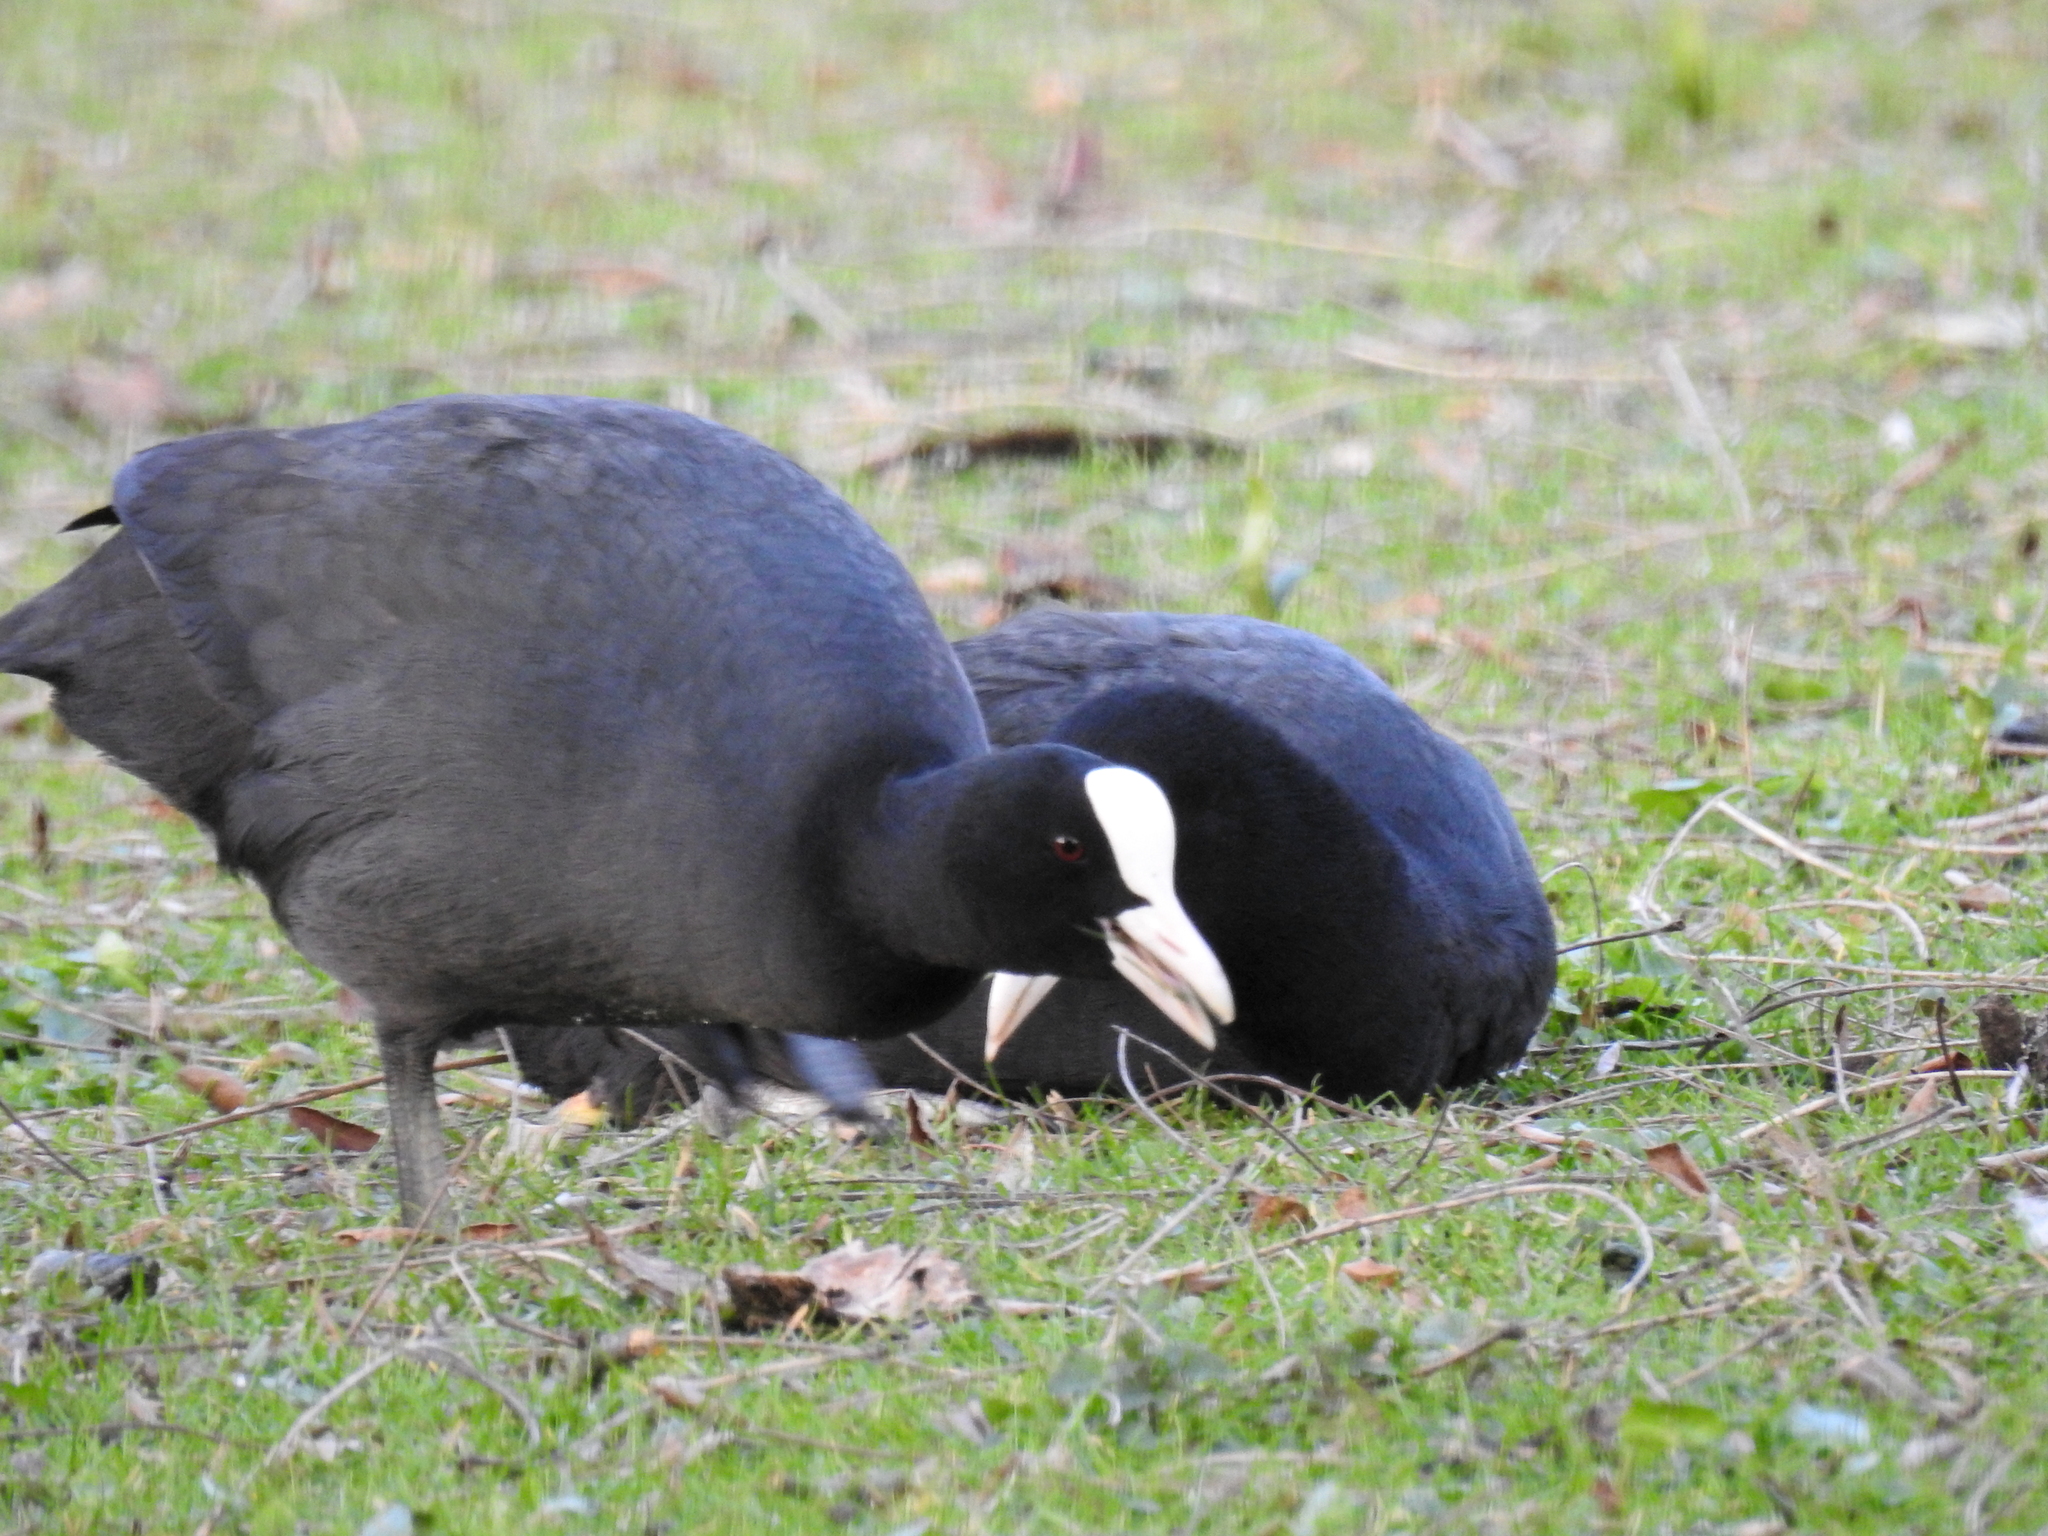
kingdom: Animalia
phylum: Chordata
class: Aves
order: Gruiformes
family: Rallidae
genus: Fulica
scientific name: Fulica atra
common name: Eurasian coot
